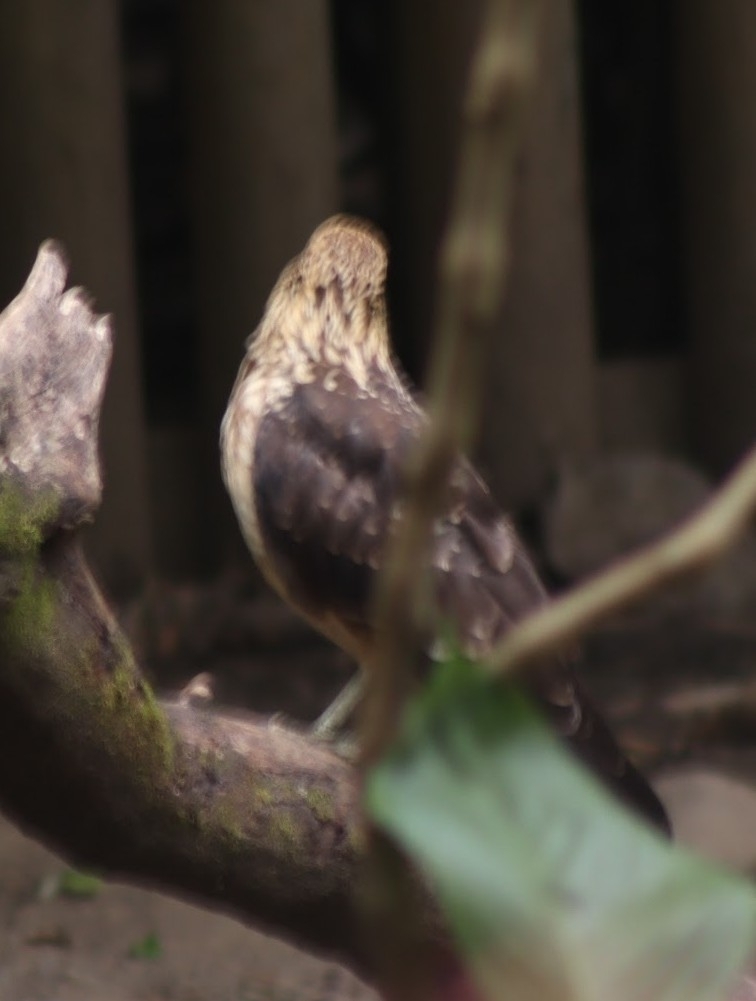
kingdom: Animalia
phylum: Chordata
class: Aves
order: Falconiformes
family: Falconidae
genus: Daptrius
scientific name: Daptrius
